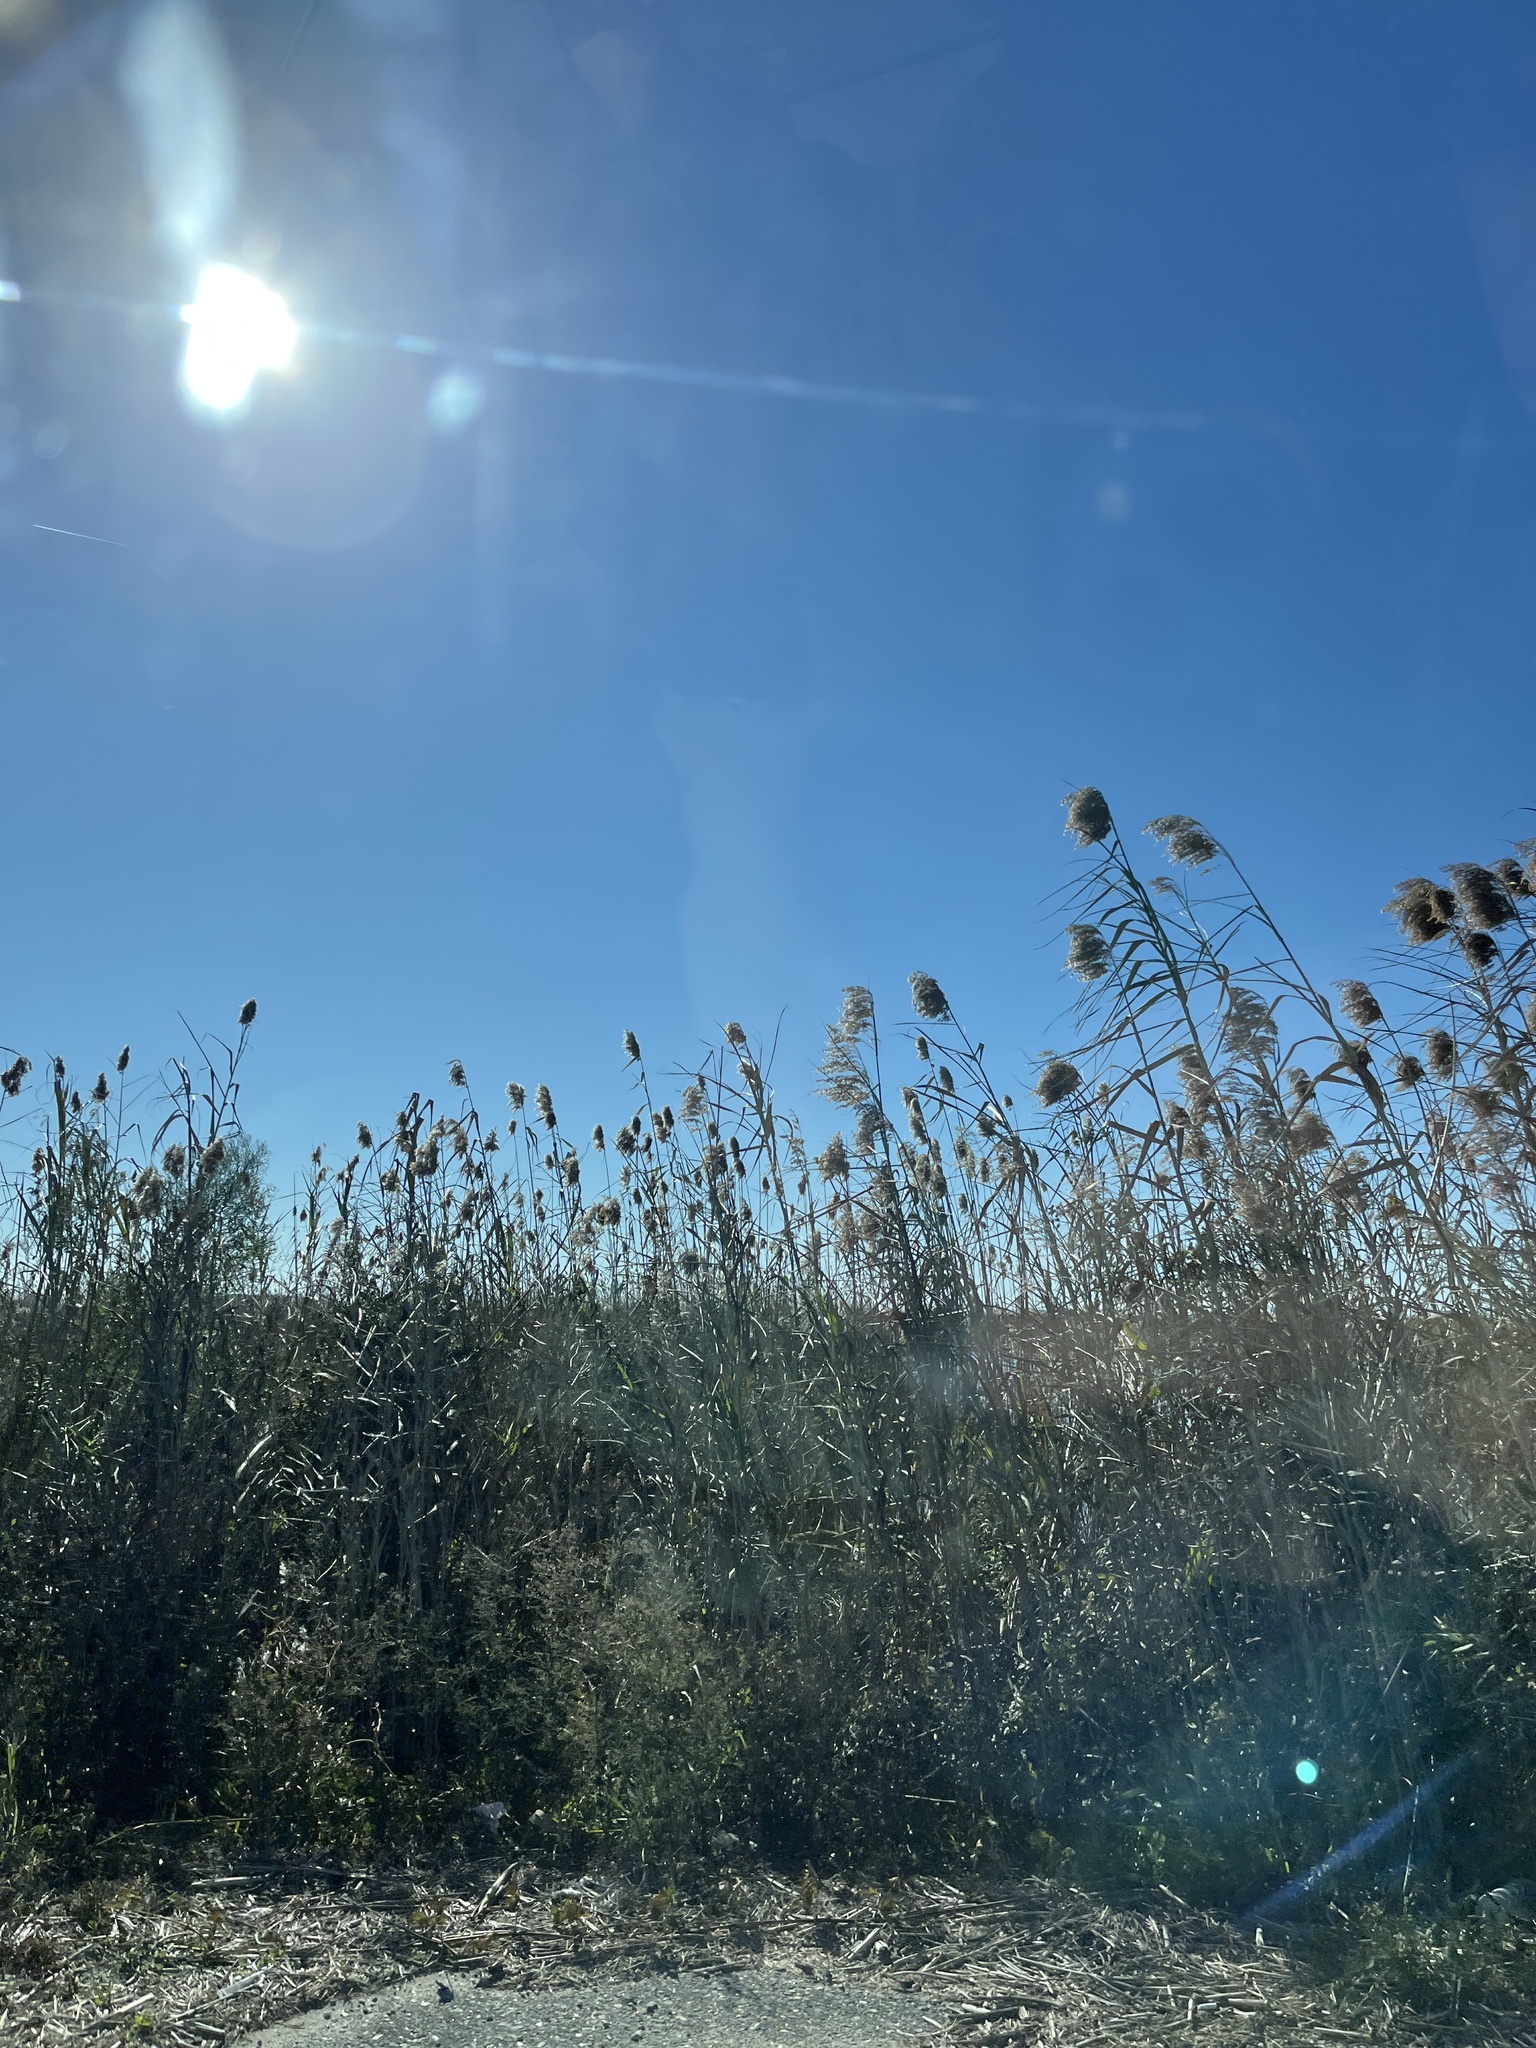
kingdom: Plantae
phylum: Tracheophyta
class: Liliopsida
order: Poales
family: Poaceae
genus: Phragmites
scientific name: Phragmites australis
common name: Common reed
